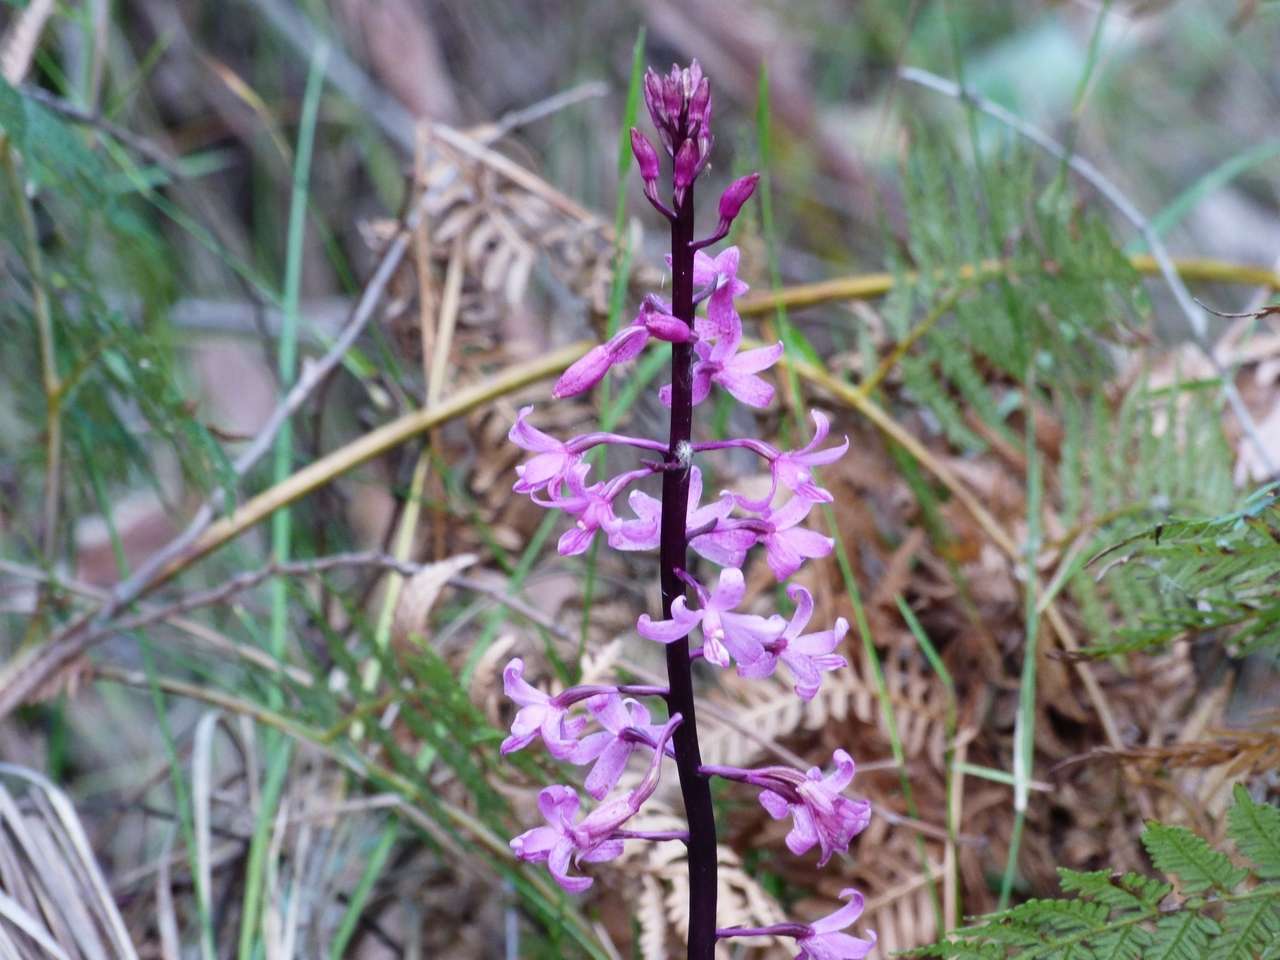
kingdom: Plantae
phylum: Tracheophyta
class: Liliopsida
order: Asparagales
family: Orchidaceae
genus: Dipodium
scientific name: Dipodium roseum
